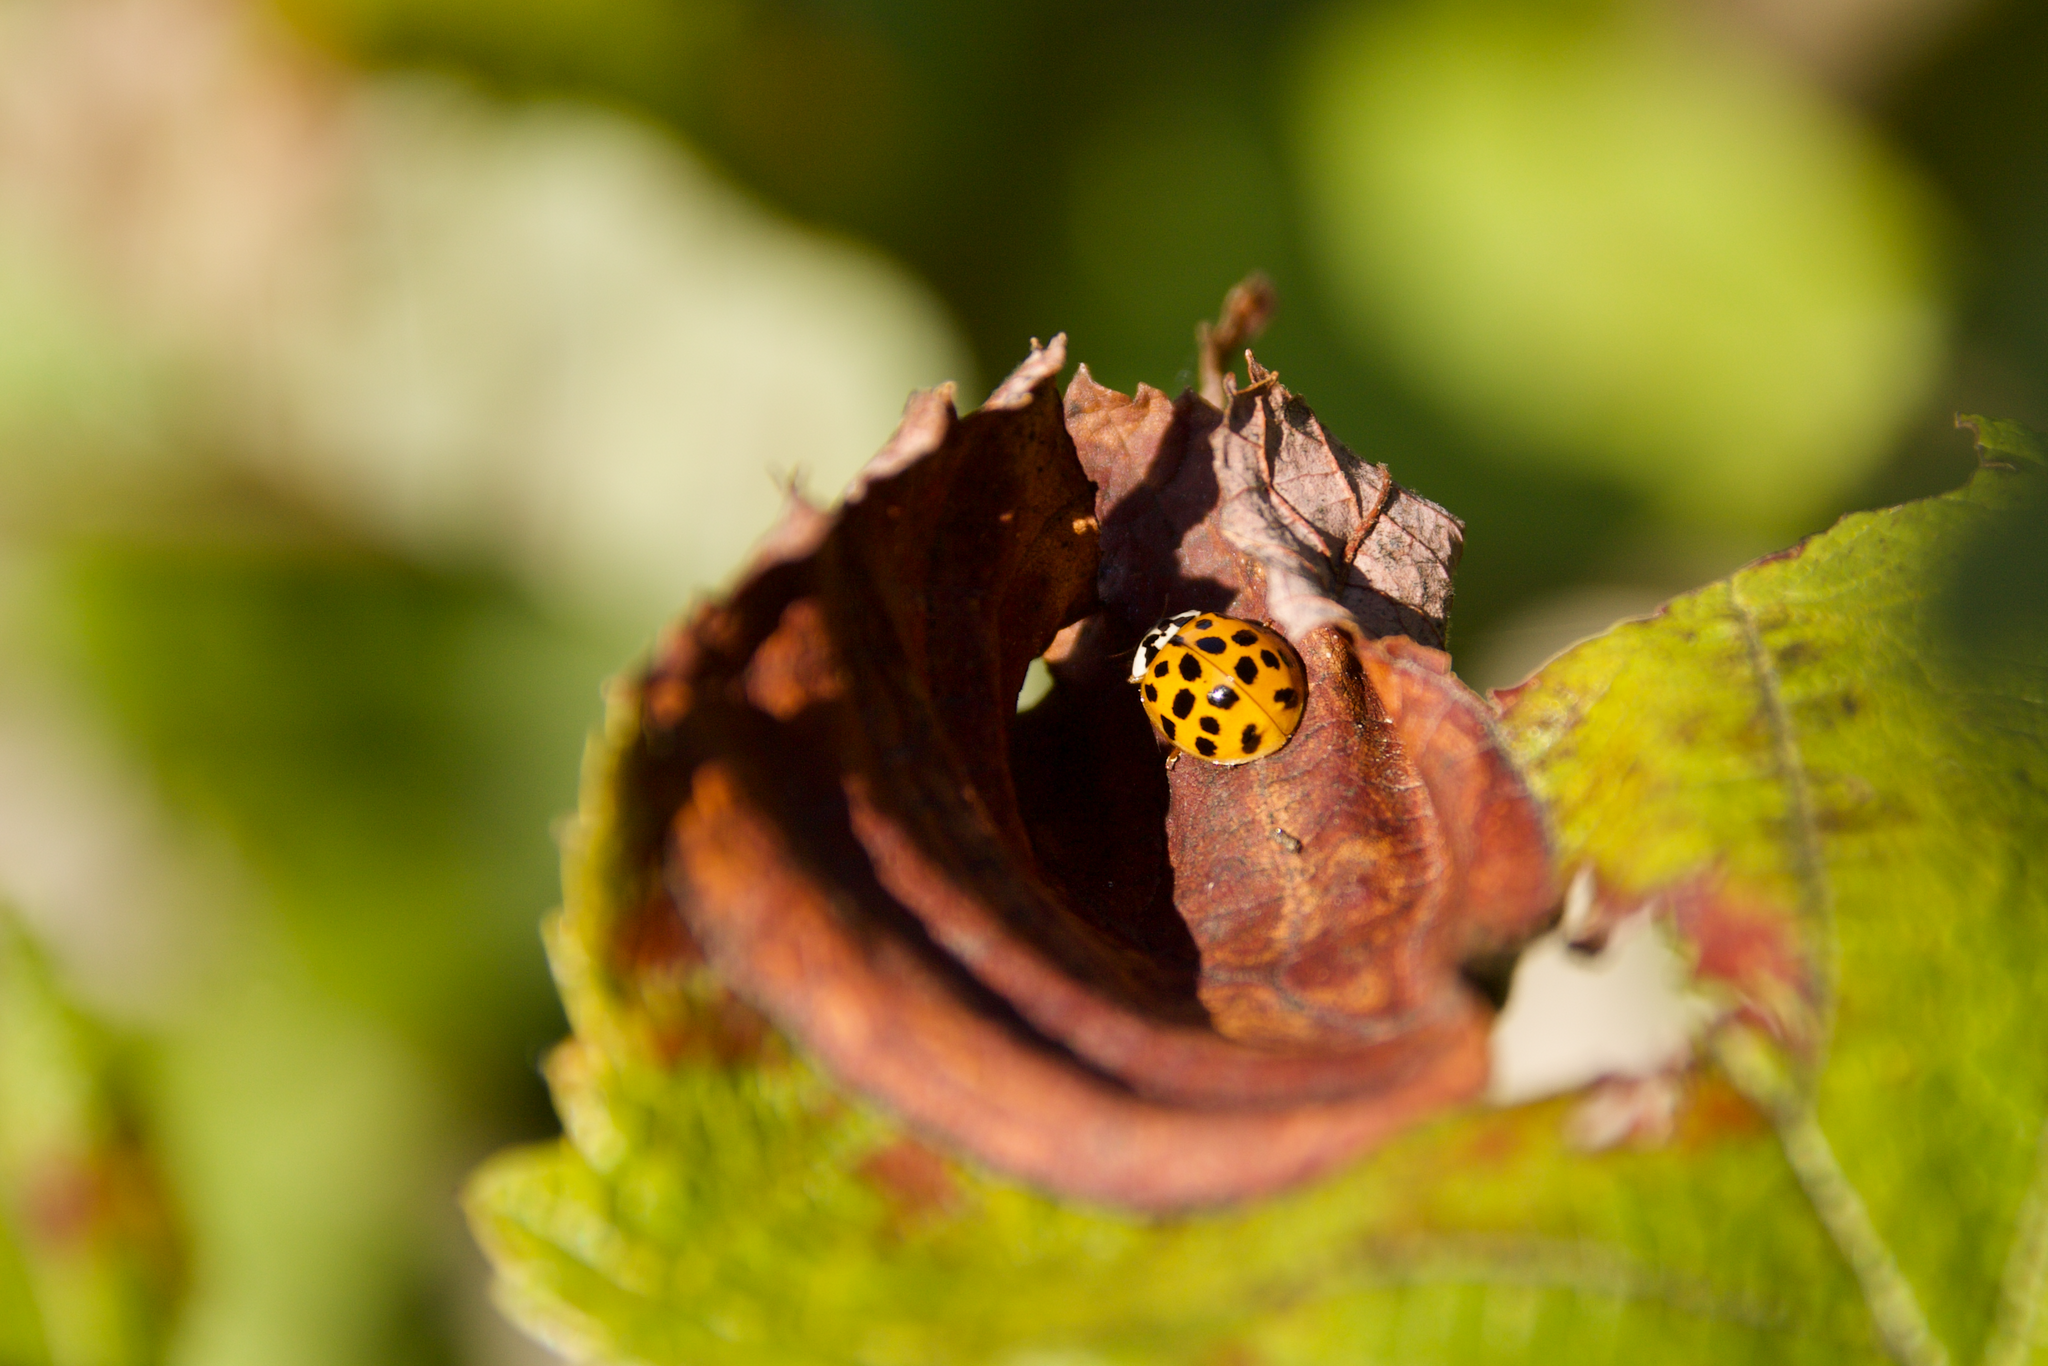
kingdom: Animalia
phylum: Arthropoda
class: Insecta
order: Coleoptera
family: Coccinellidae
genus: Harmonia
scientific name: Harmonia axyridis
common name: Harlequin ladybird
